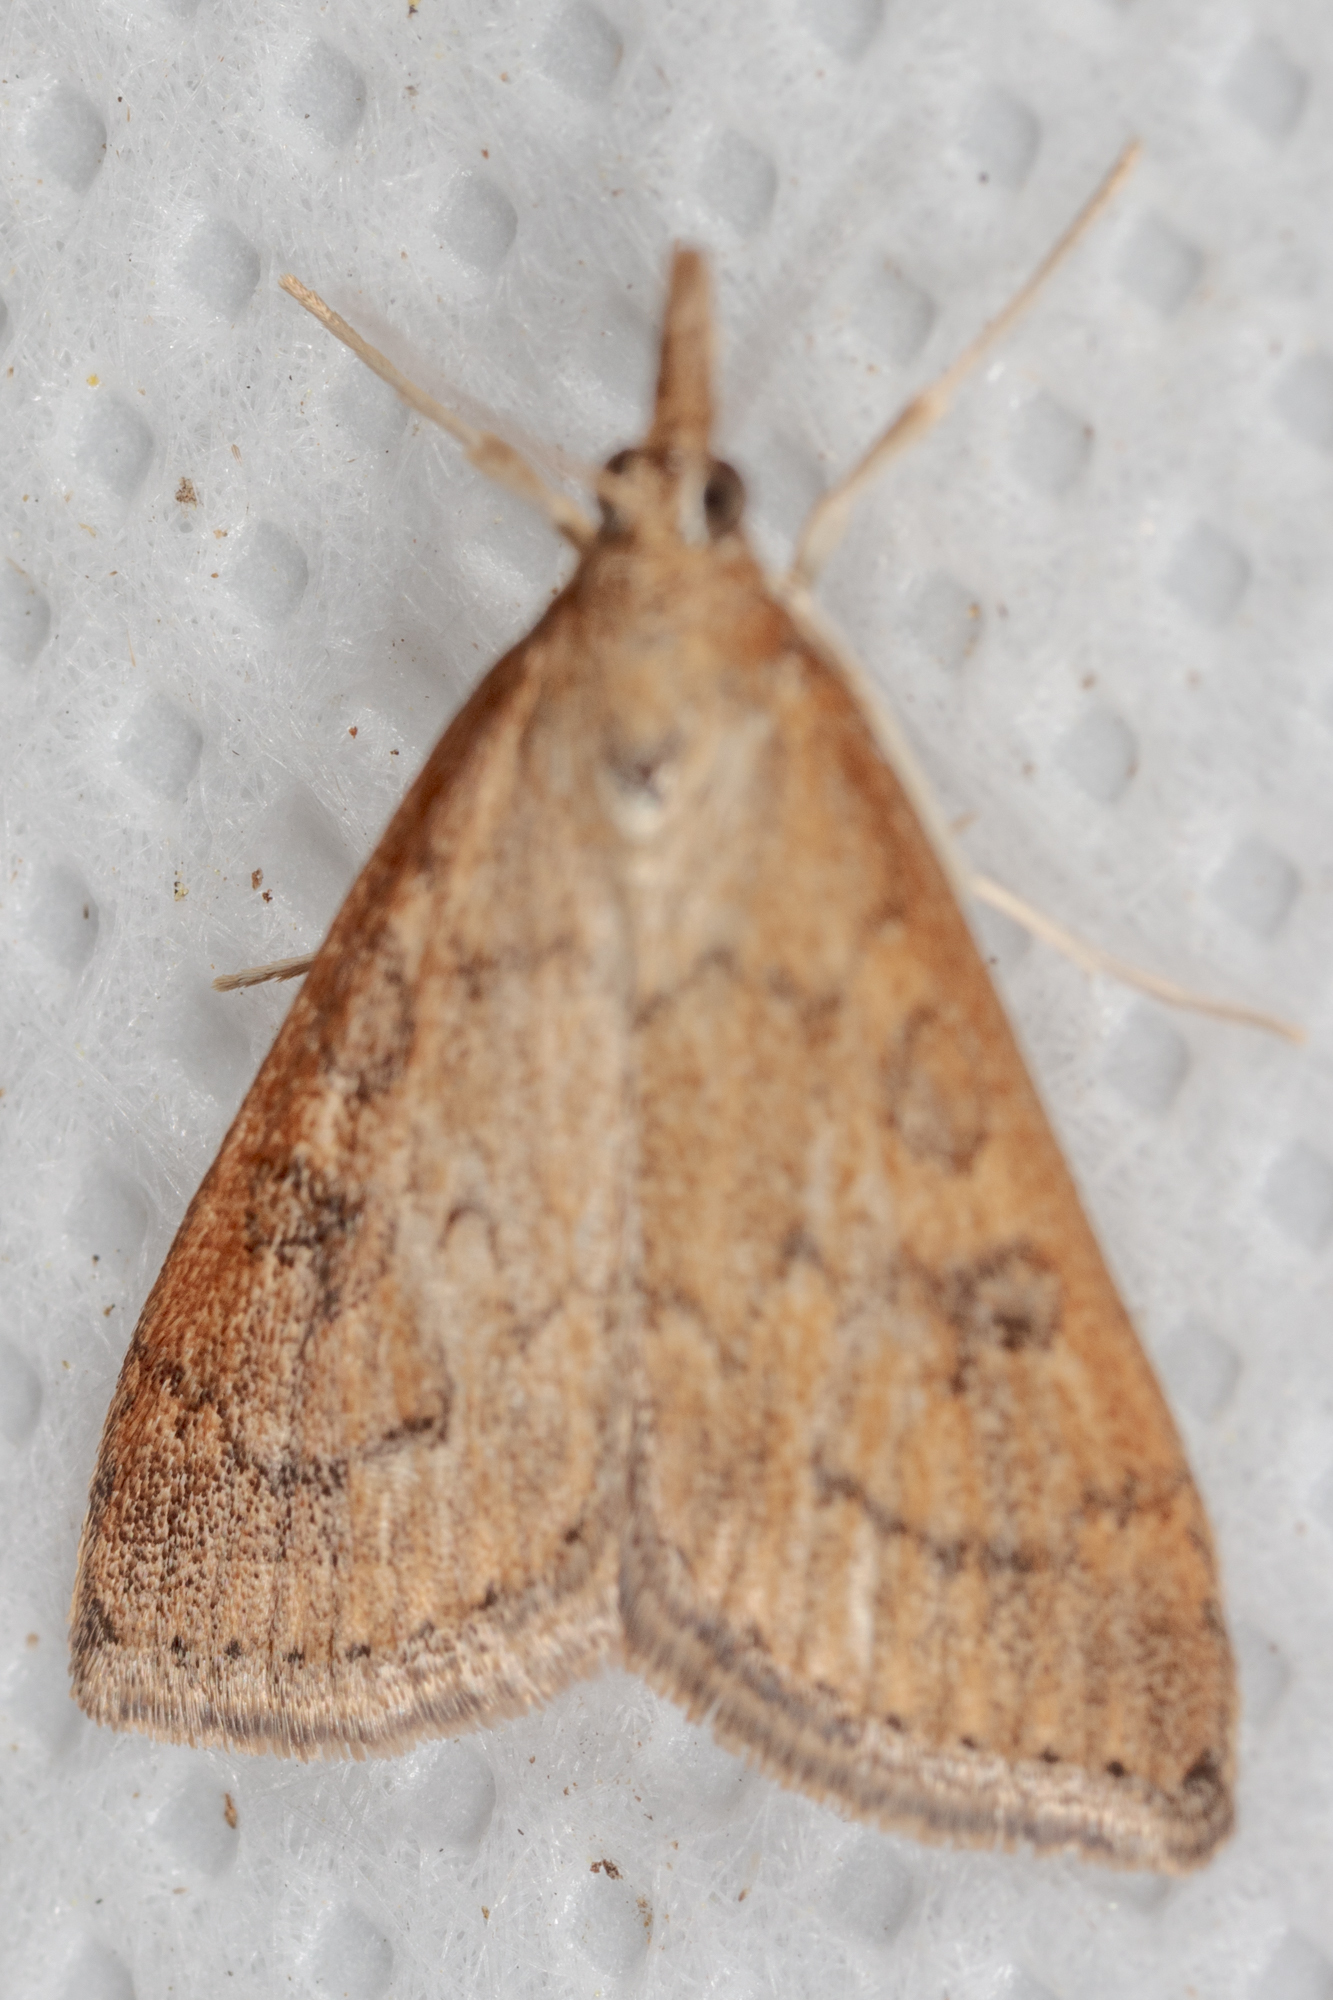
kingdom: Animalia
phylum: Arthropoda
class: Insecta
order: Lepidoptera
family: Crambidae
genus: Udea
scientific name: Udea rubigalis
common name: Celery leaftier moth
